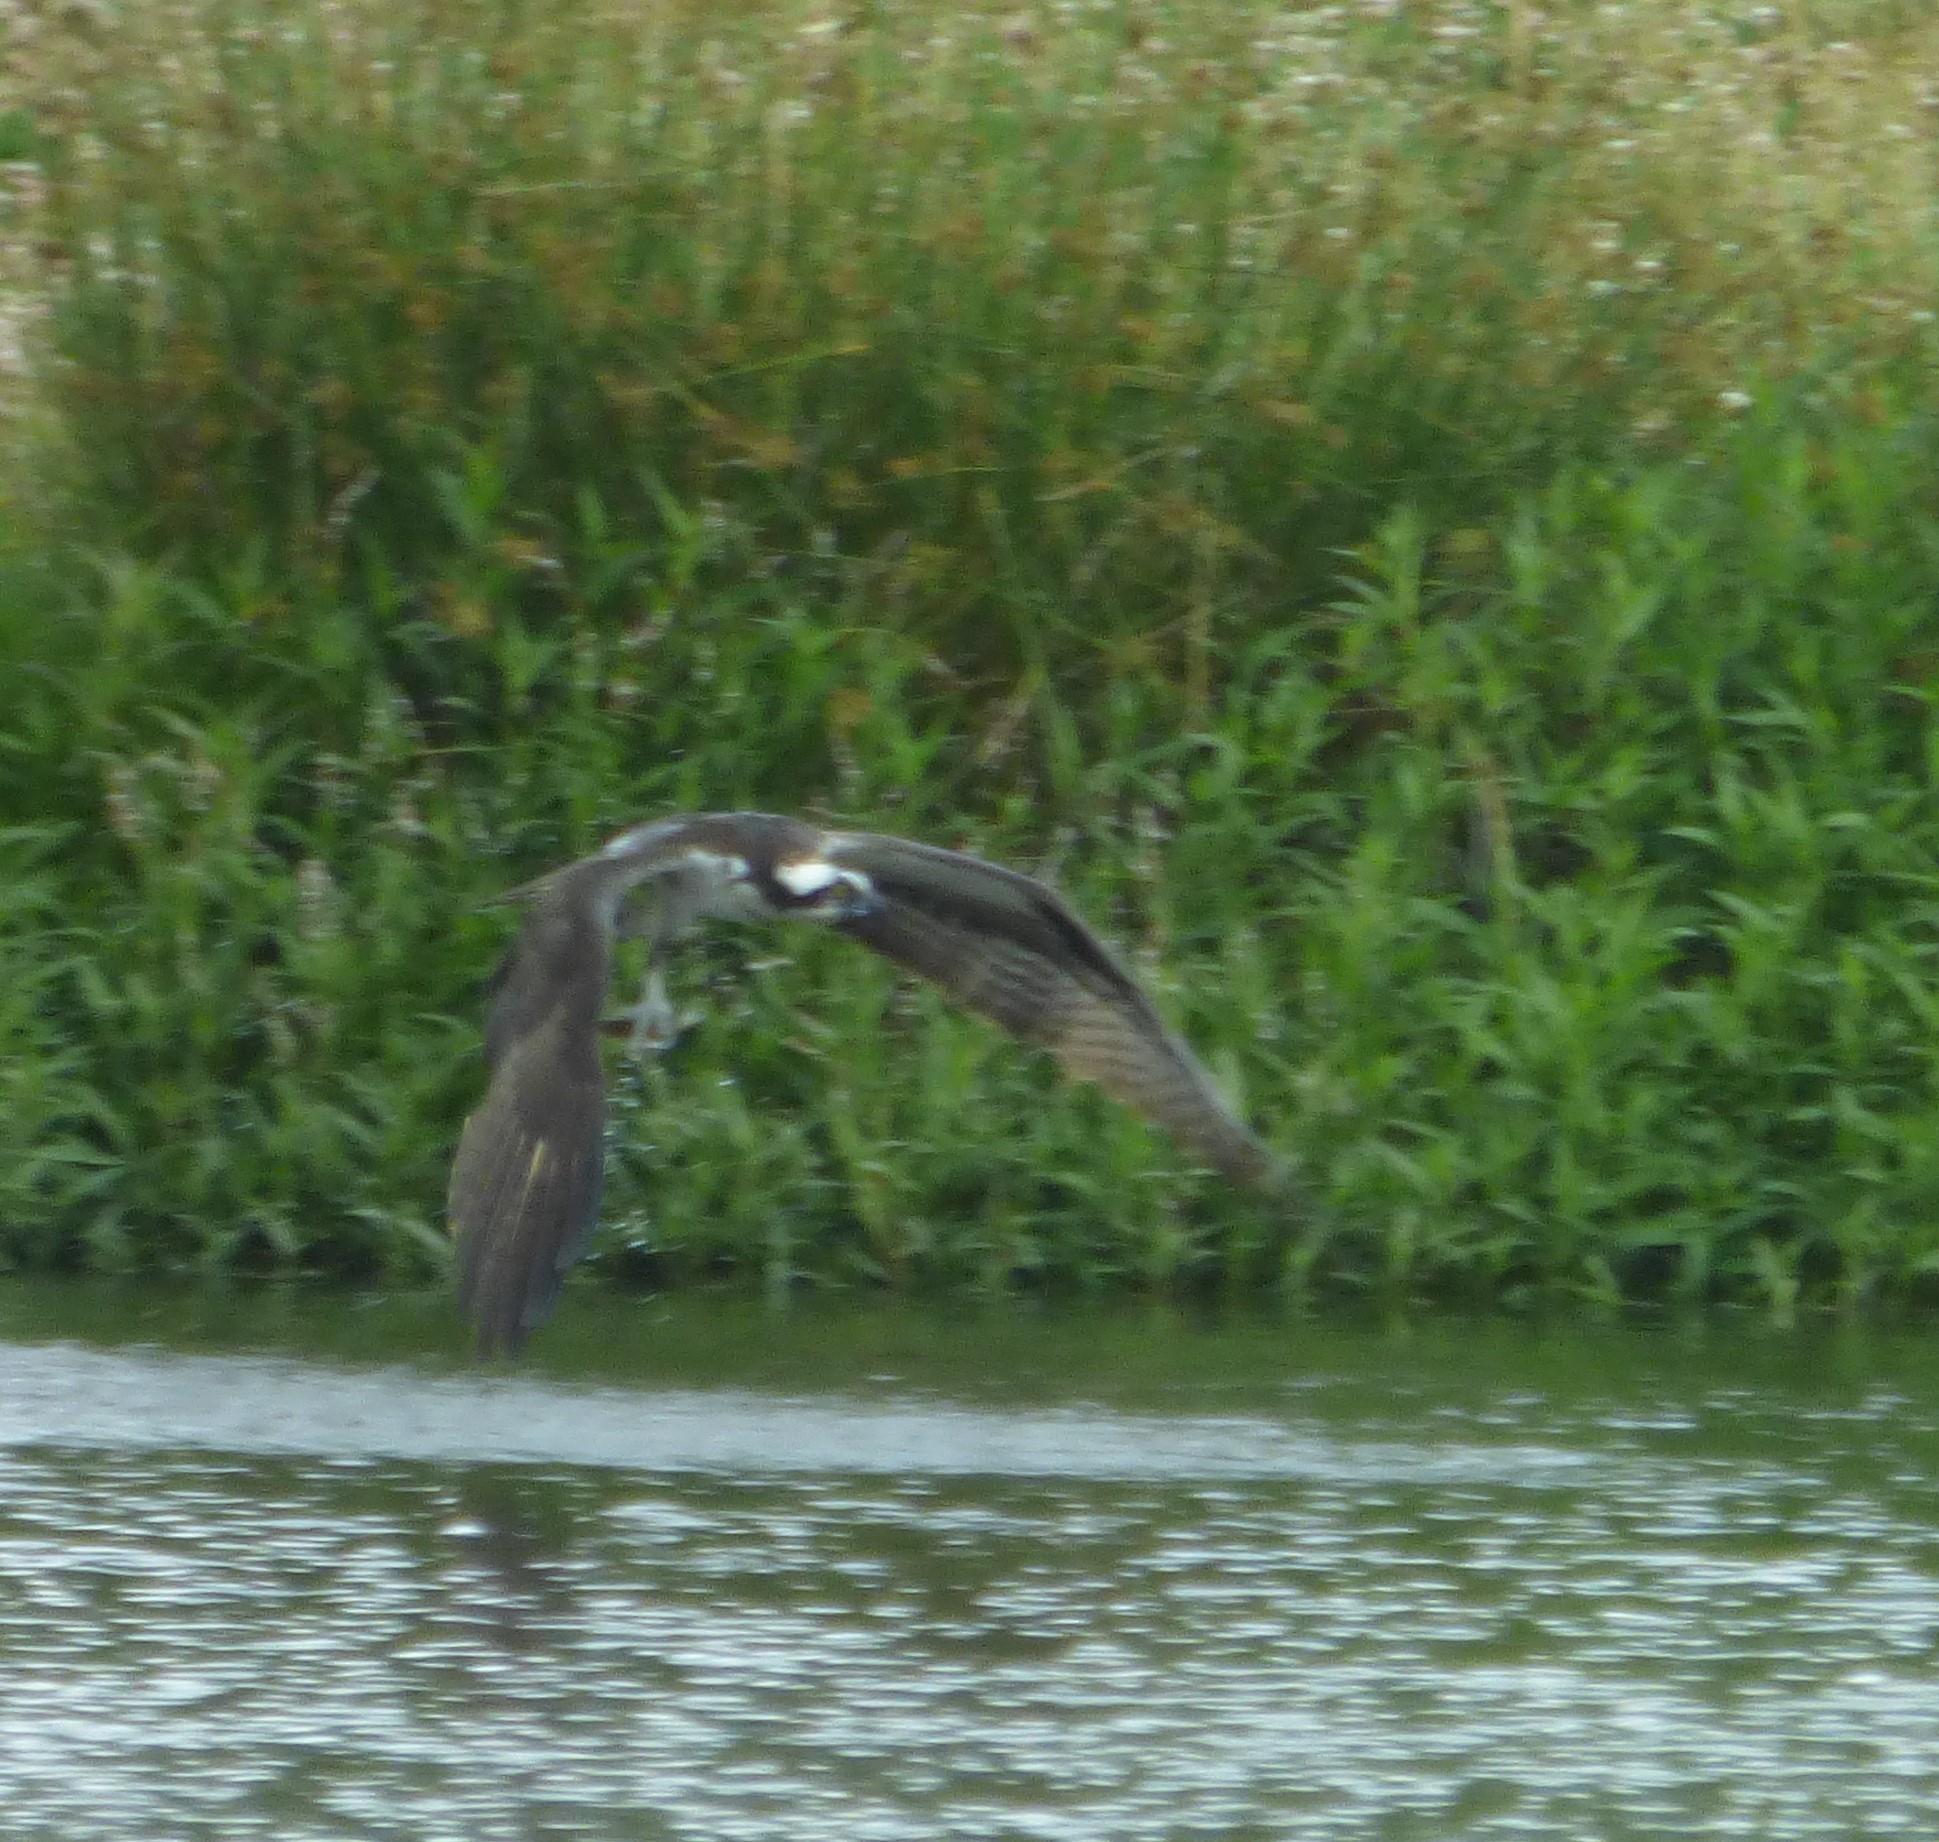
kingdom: Animalia
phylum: Chordata
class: Aves
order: Accipitriformes
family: Pandionidae
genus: Pandion
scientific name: Pandion haliaetus
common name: Osprey
